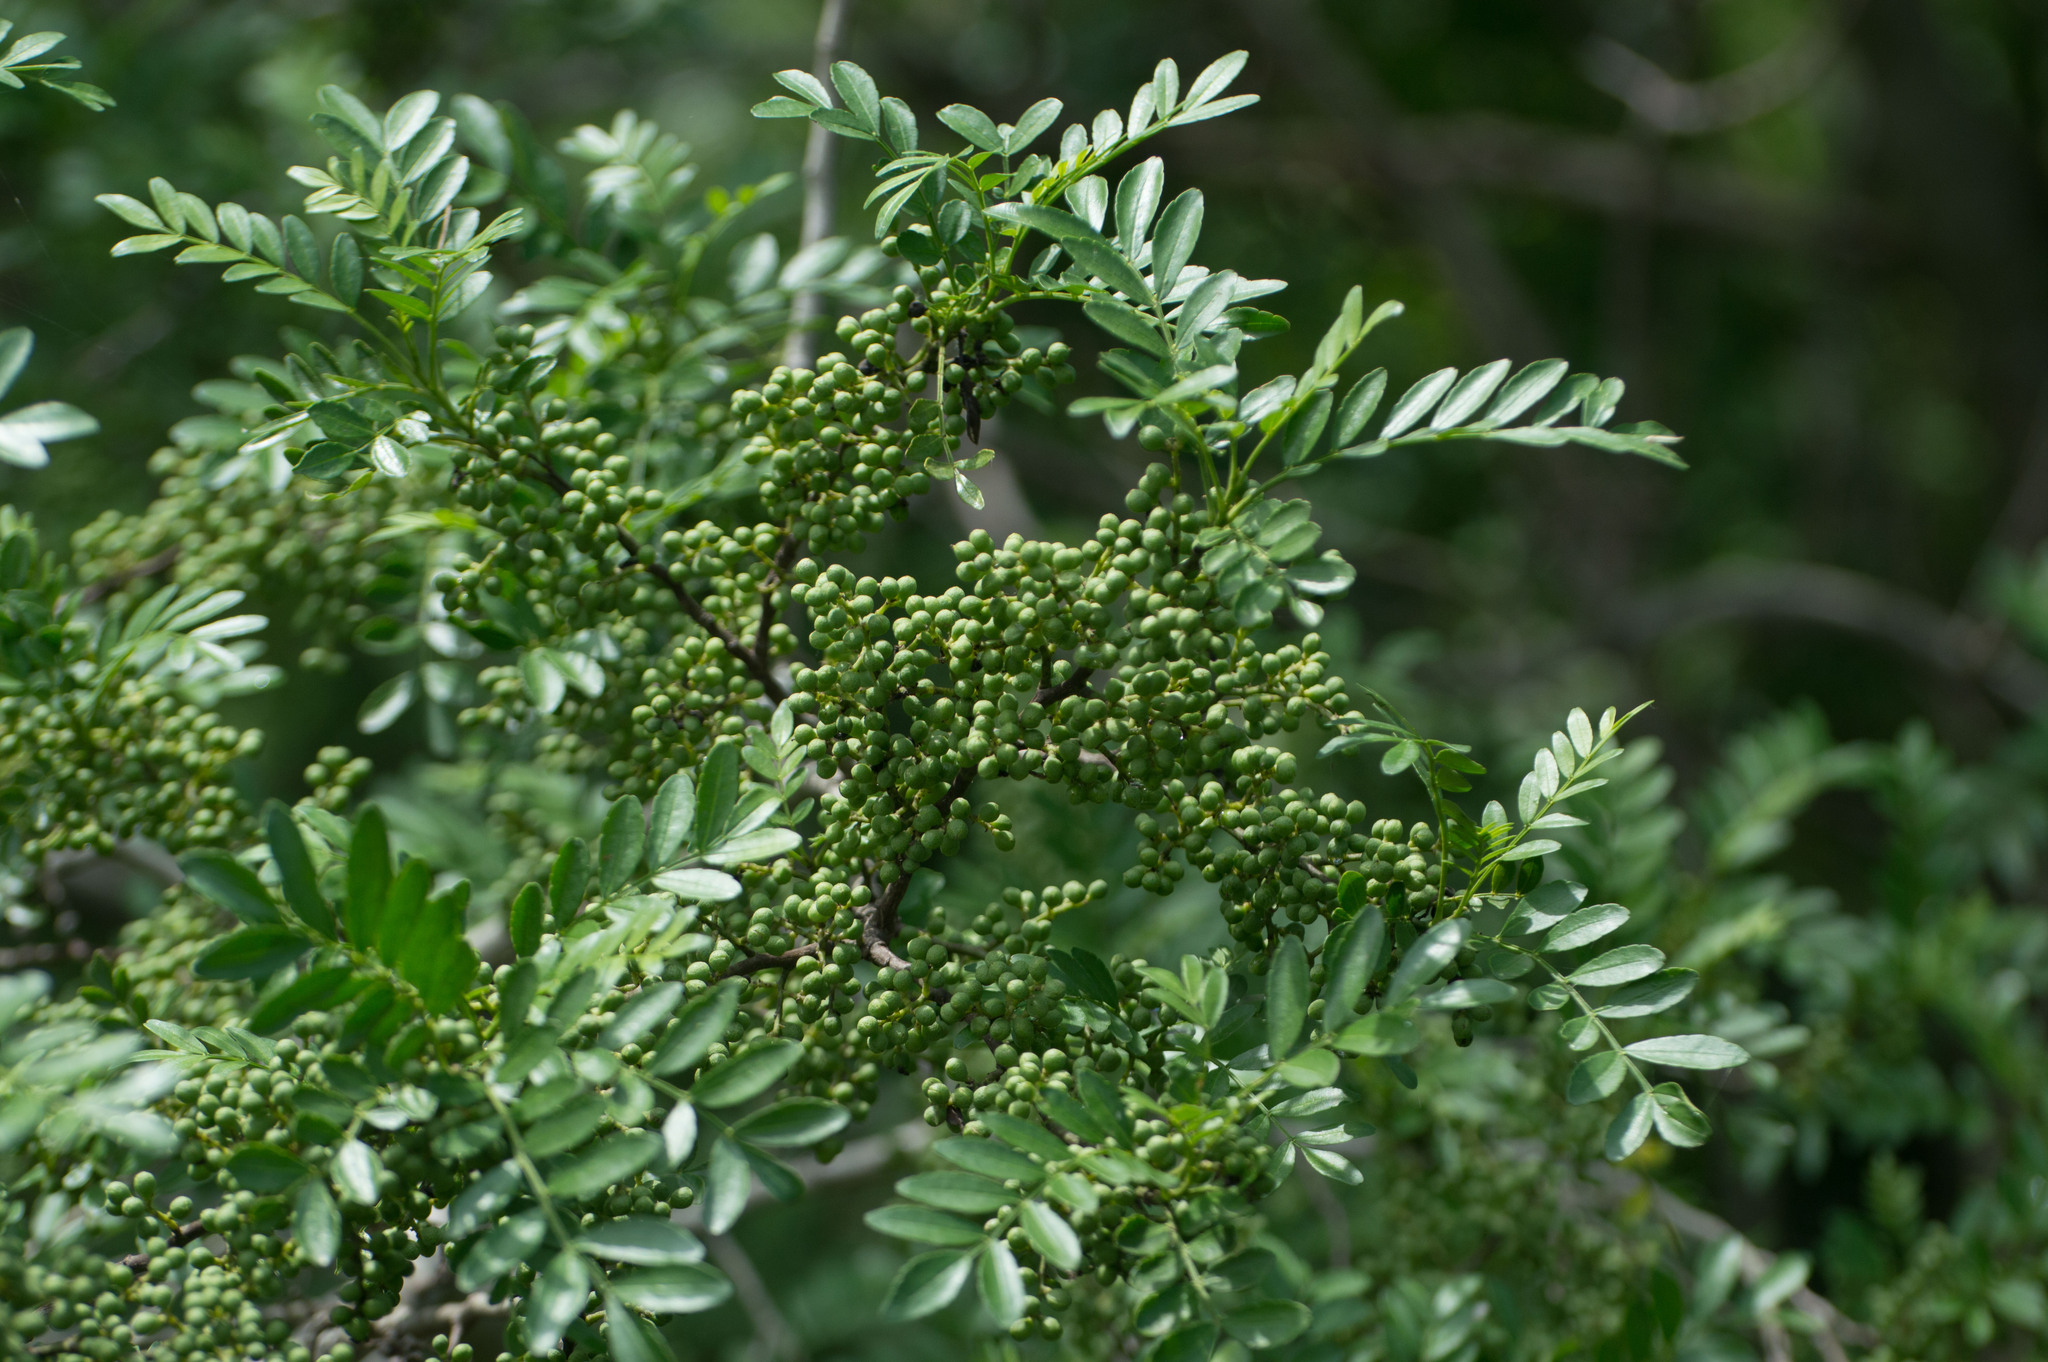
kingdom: Plantae
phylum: Tracheophyta
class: Magnoliopsida
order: Sapindales
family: Rutaceae
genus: Zanthoxylum
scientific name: Zanthoxylum fagara
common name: Lime prickly-ash
